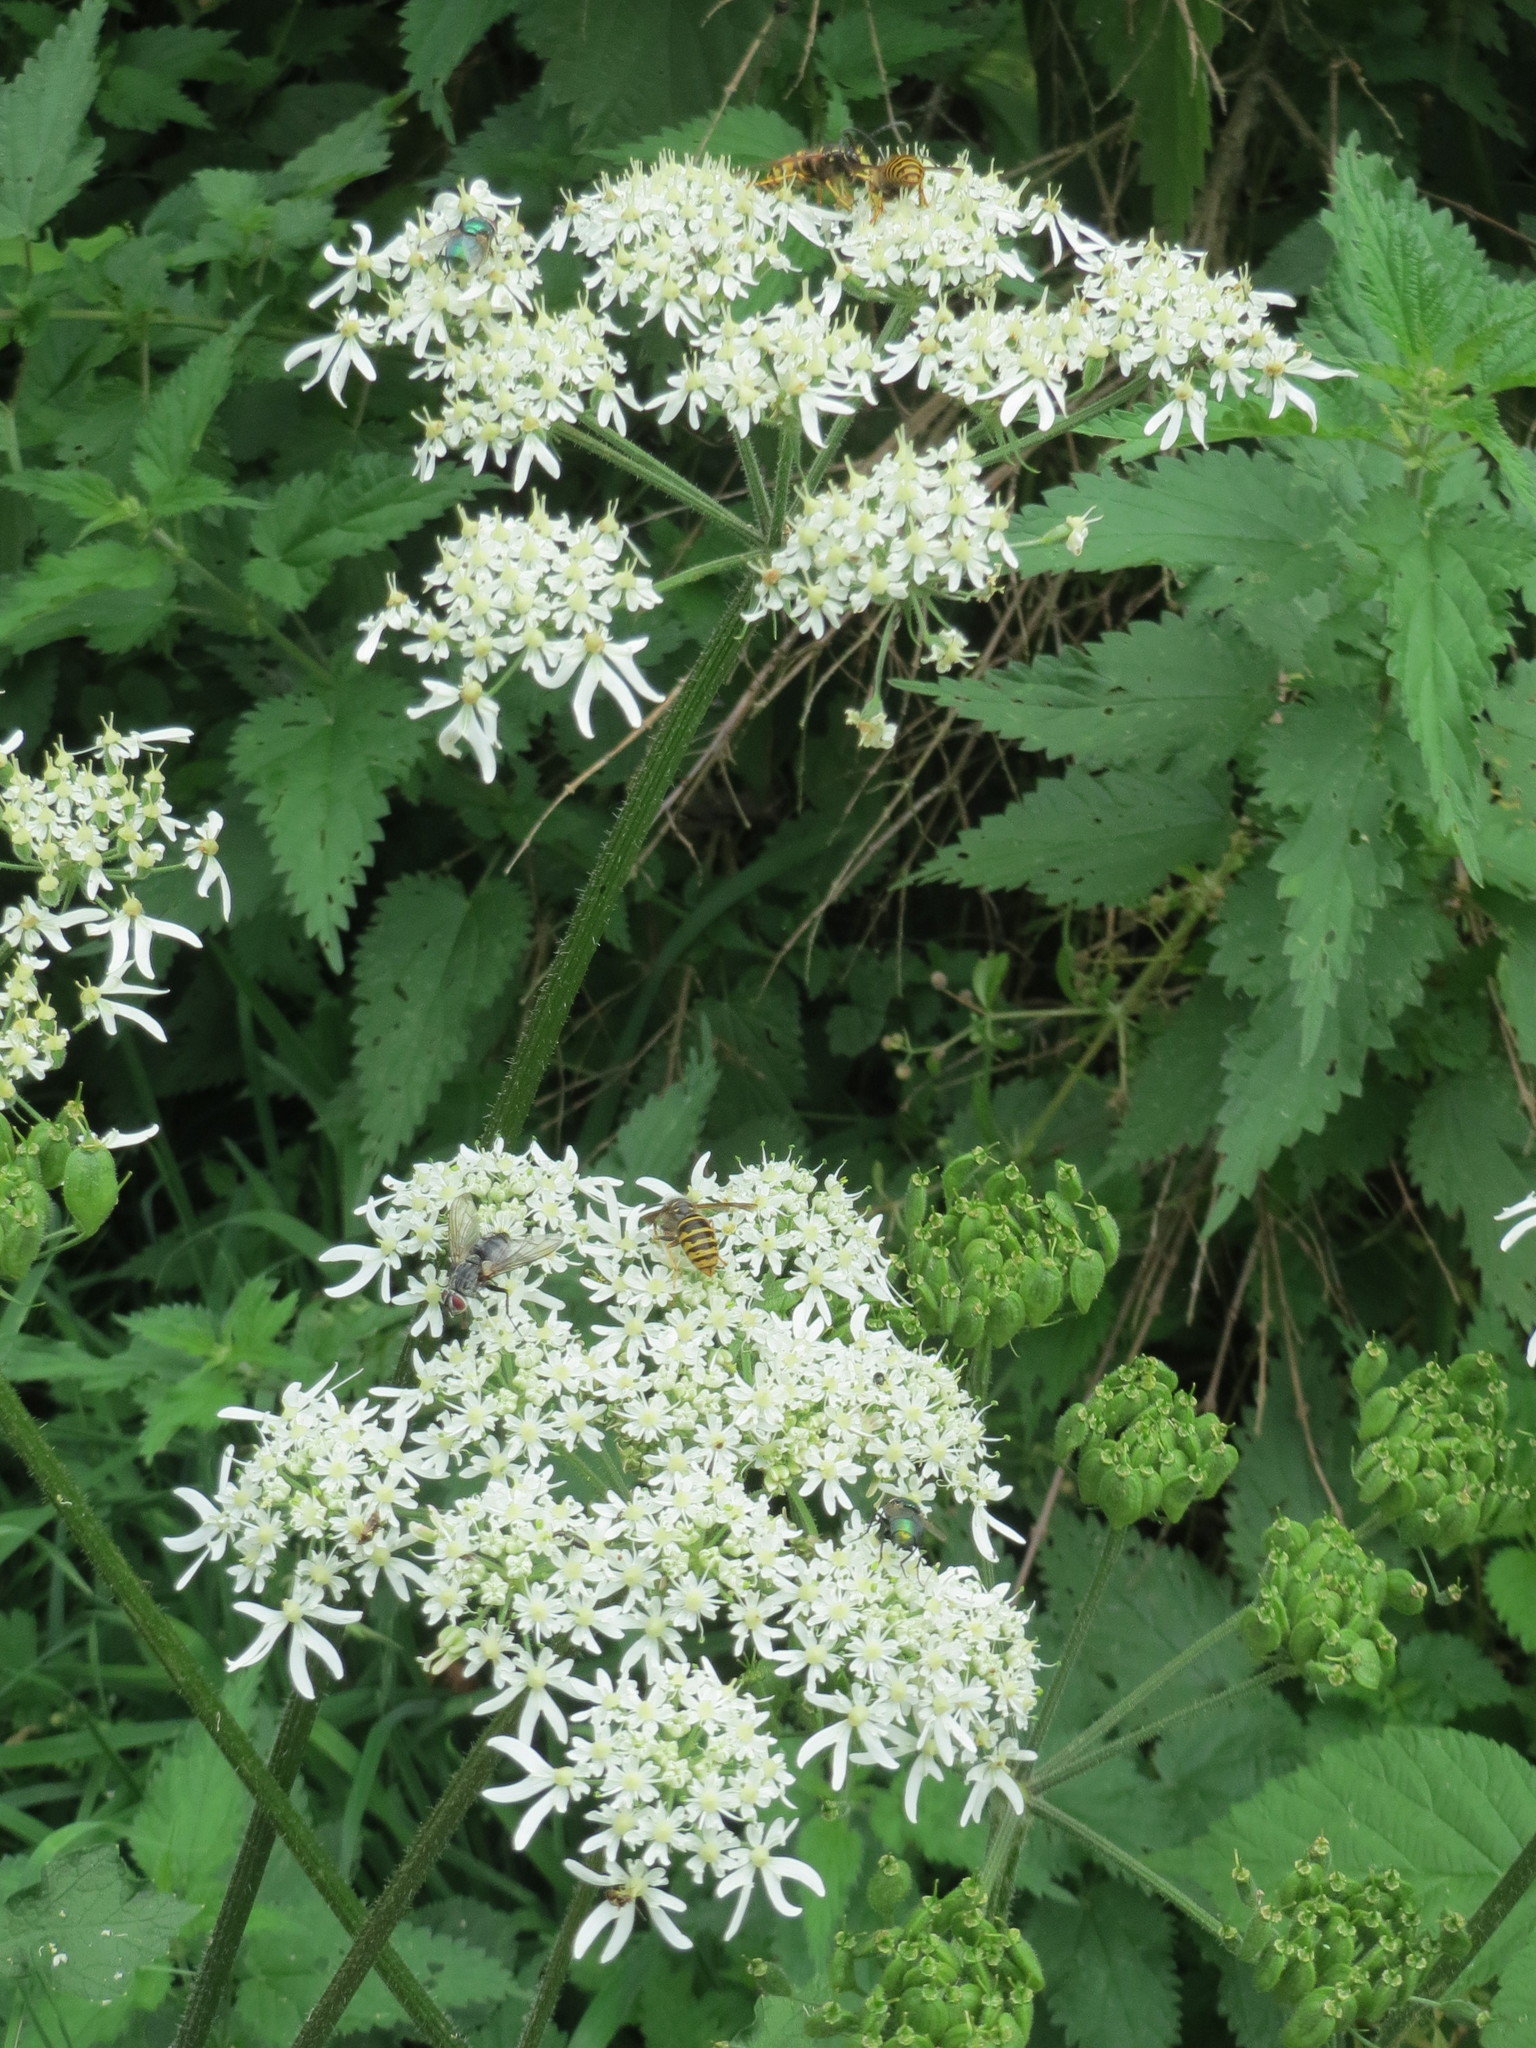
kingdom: Plantae
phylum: Tracheophyta
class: Magnoliopsida
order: Apiales
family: Apiaceae
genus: Heracleum
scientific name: Heracleum sphondylium
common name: Hogweed
